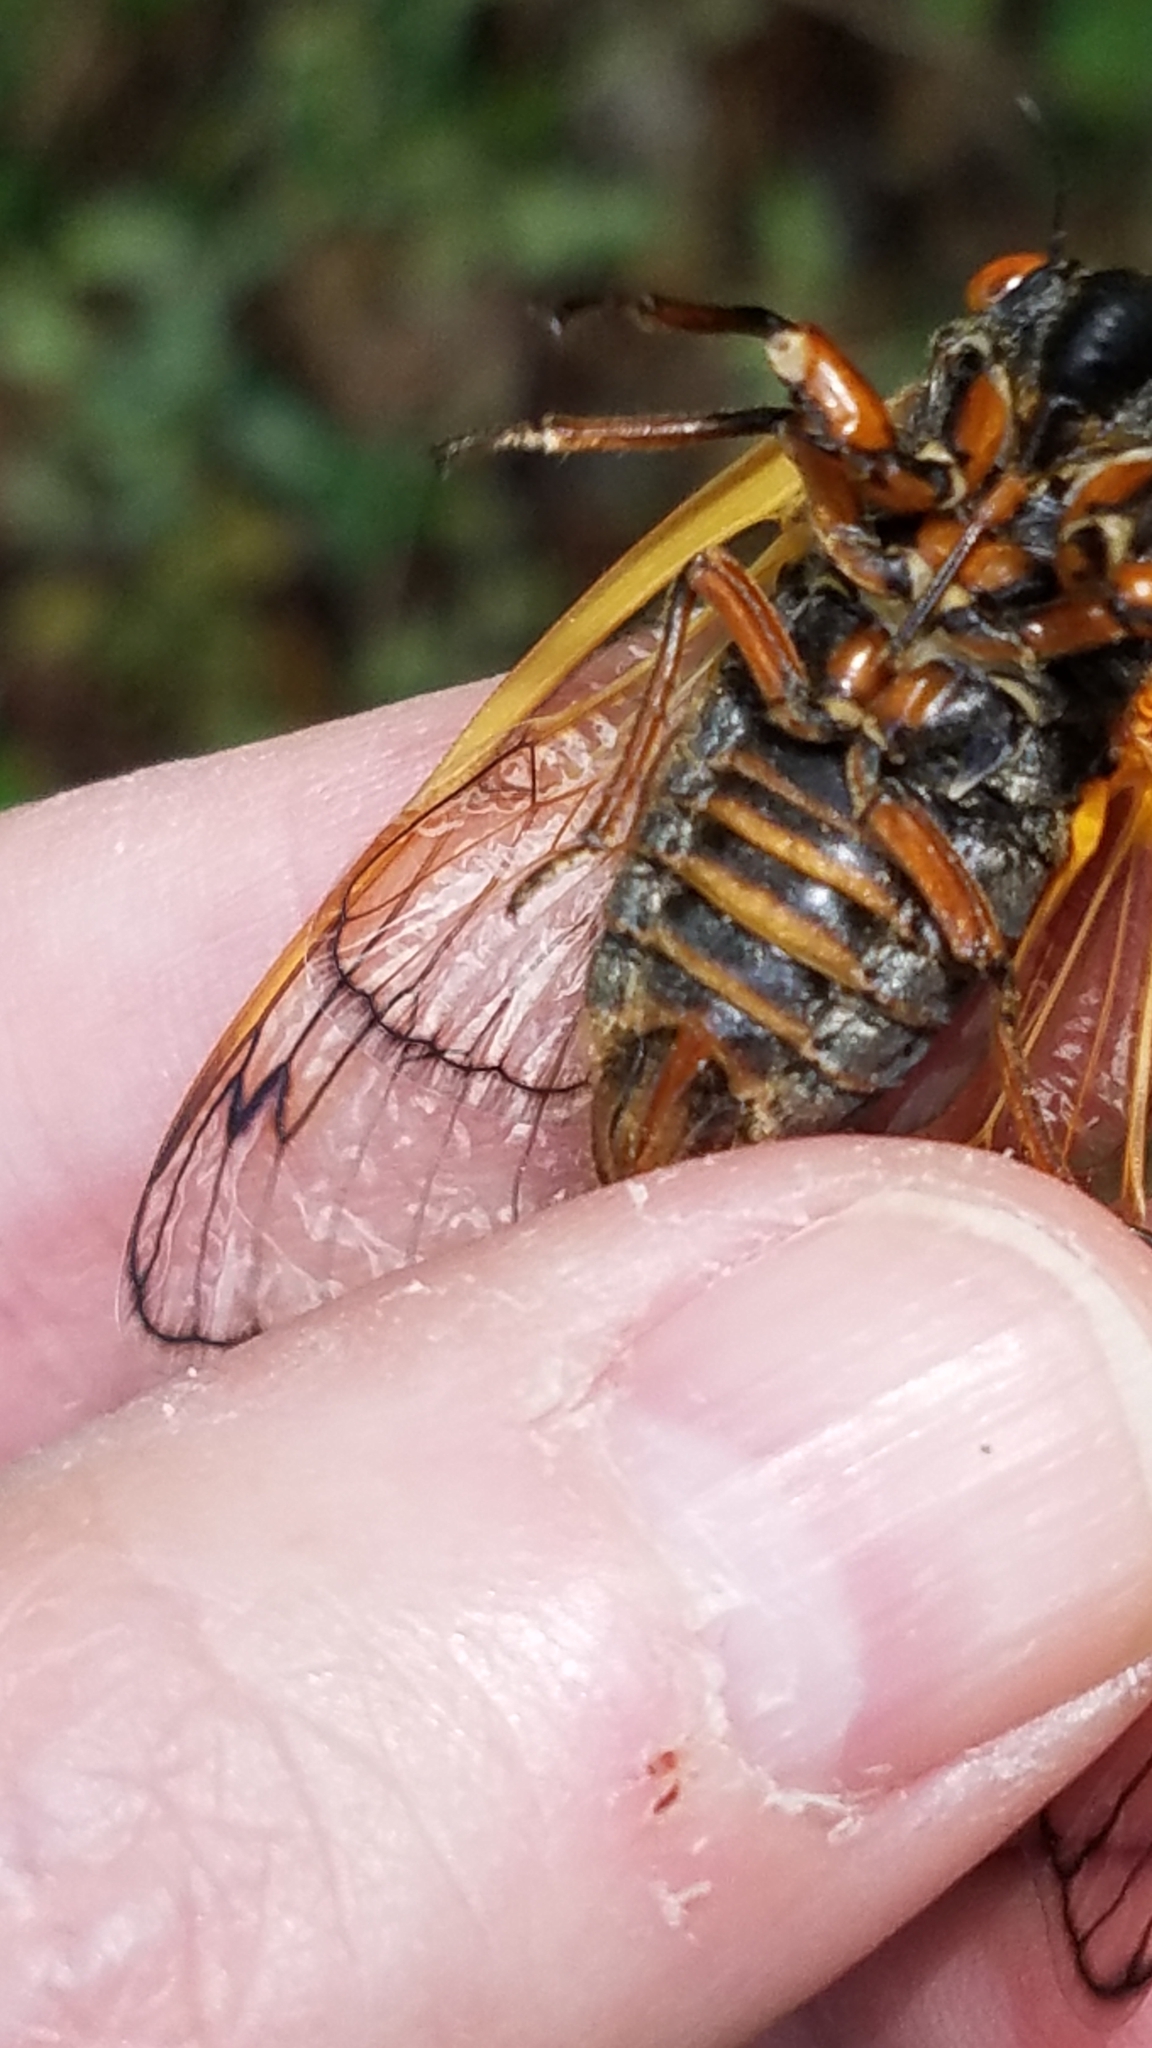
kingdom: Animalia
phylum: Arthropoda
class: Insecta
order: Hemiptera
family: Cicadidae
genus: Magicicada
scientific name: Magicicada septendecim
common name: Periodical cicada
